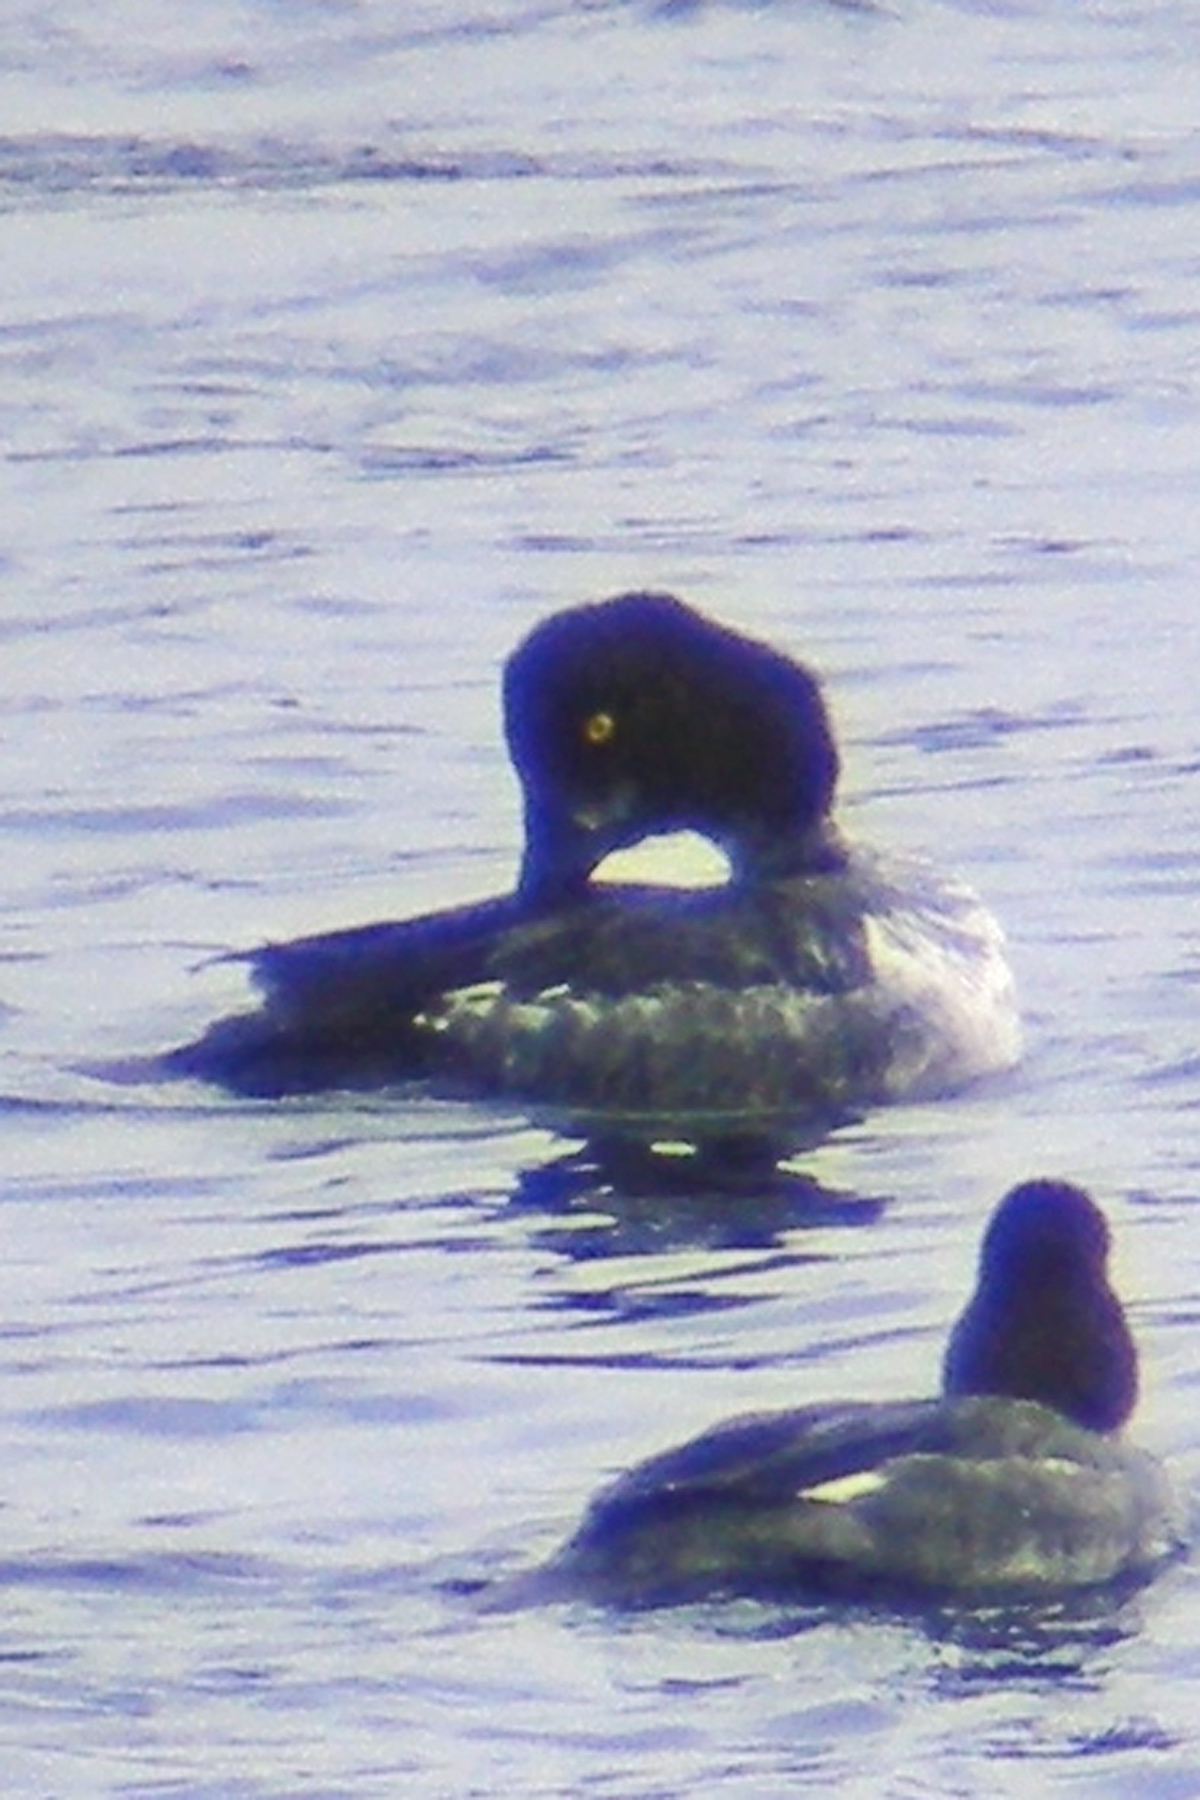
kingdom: Animalia
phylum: Chordata
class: Aves
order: Anseriformes
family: Anatidae
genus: Bucephala
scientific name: Bucephala clangula
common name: Common goldeneye
